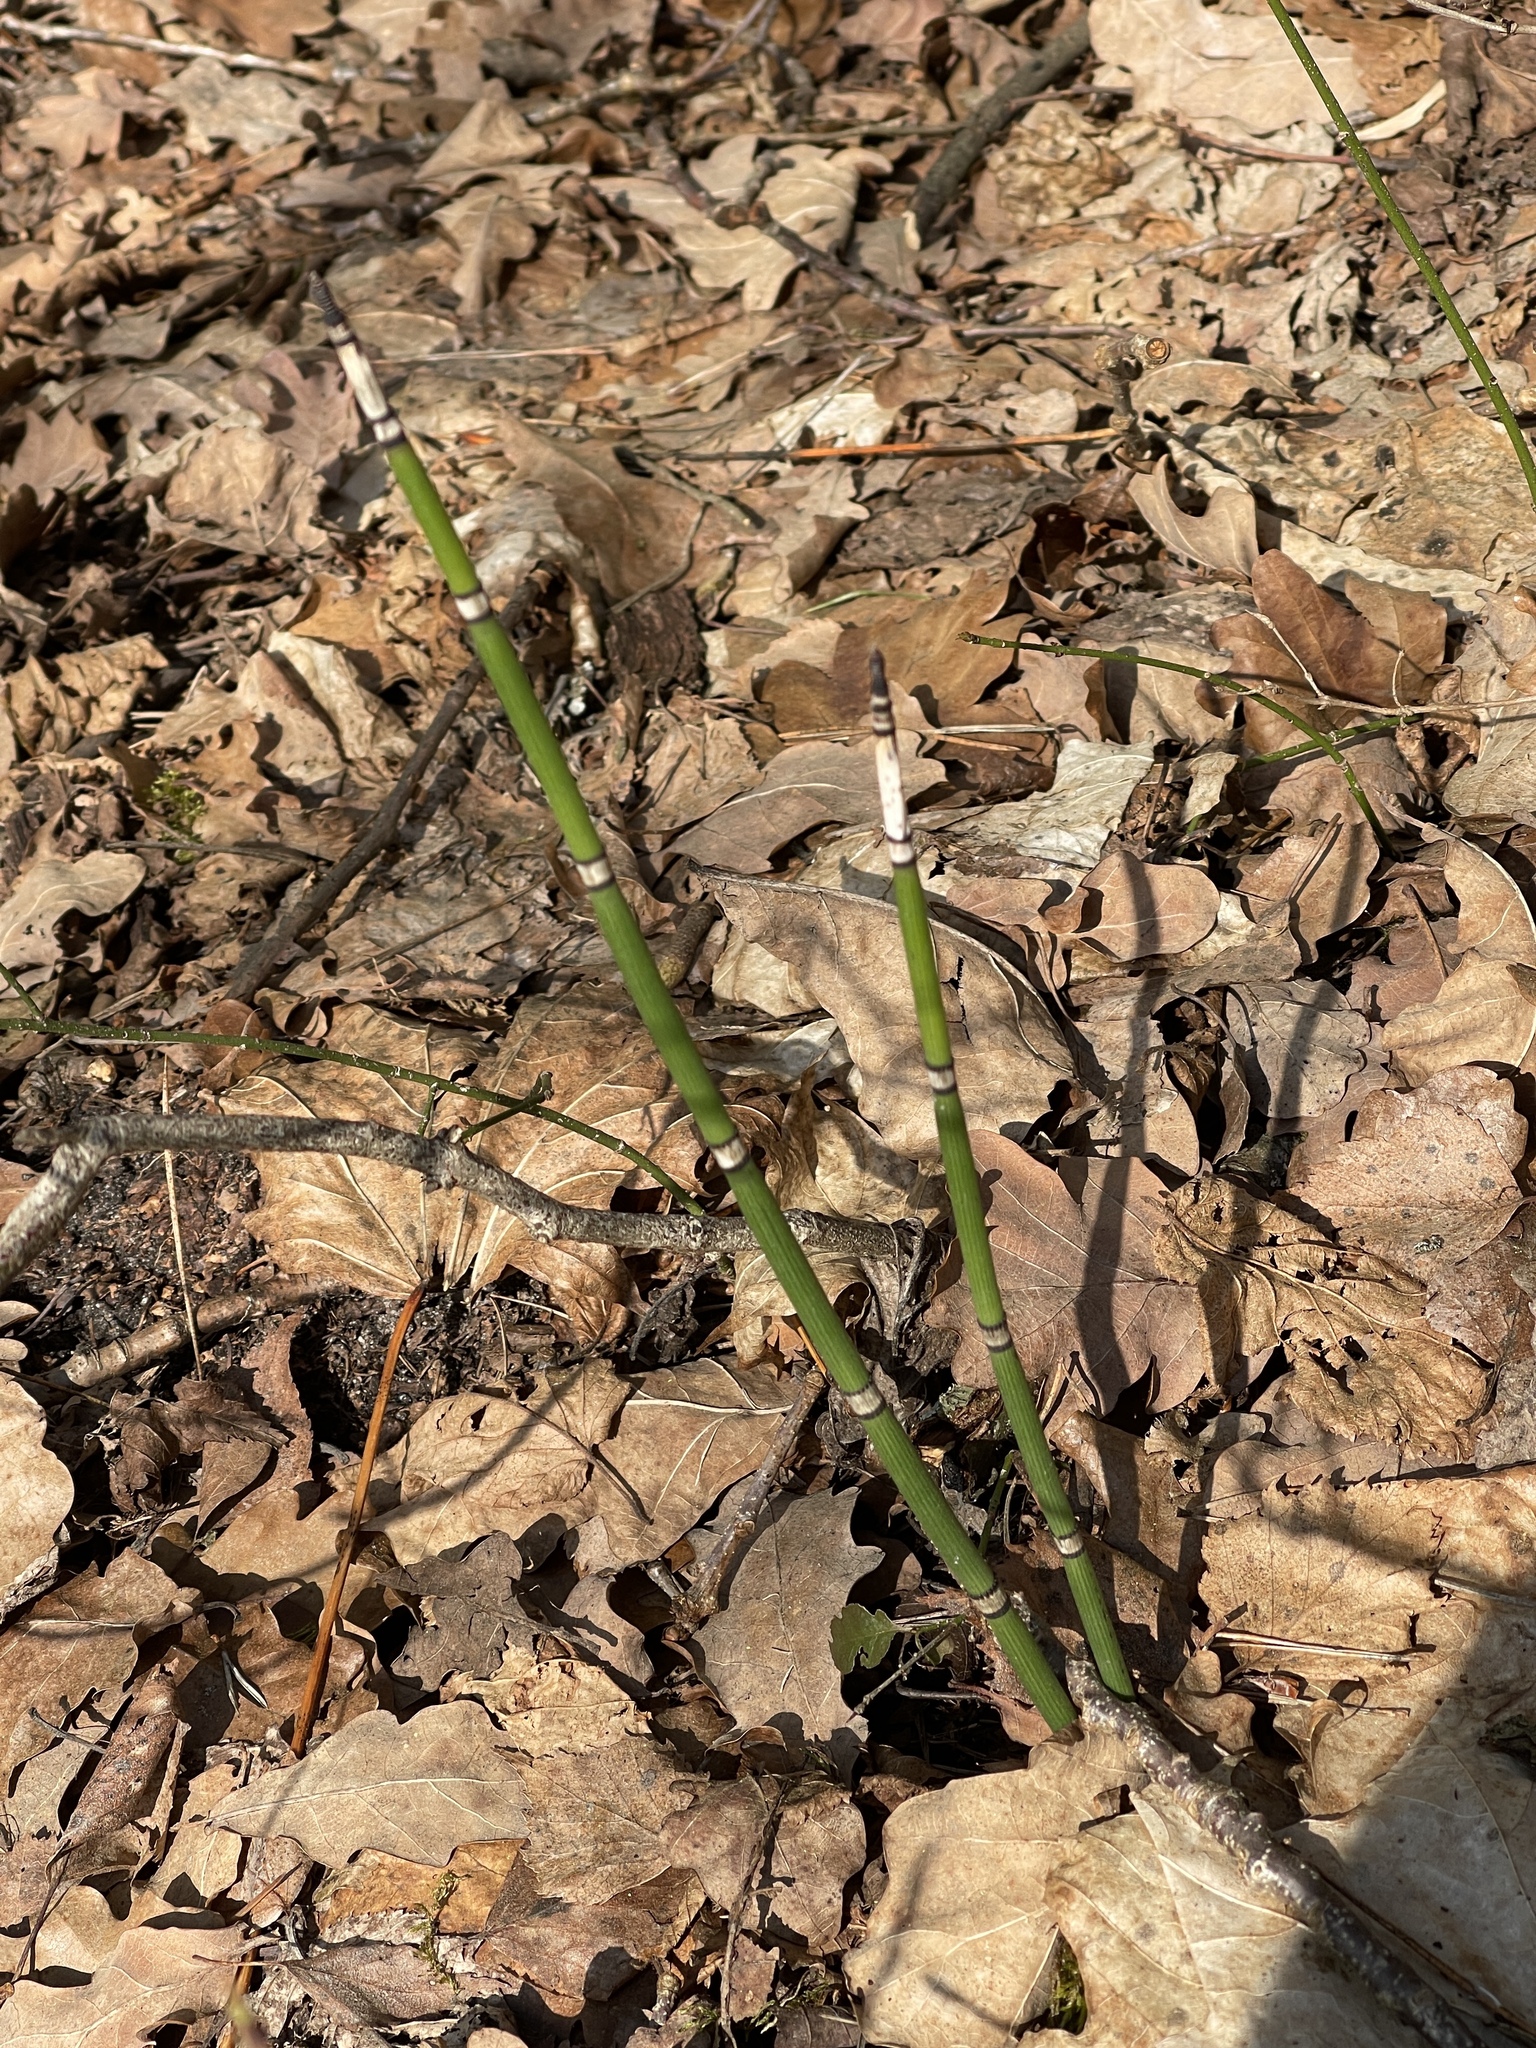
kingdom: Plantae
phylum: Tracheophyta
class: Polypodiopsida
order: Equisetales
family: Equisetaceae
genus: Equisetum
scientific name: Equisetum hyemale
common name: Rough horsetail
